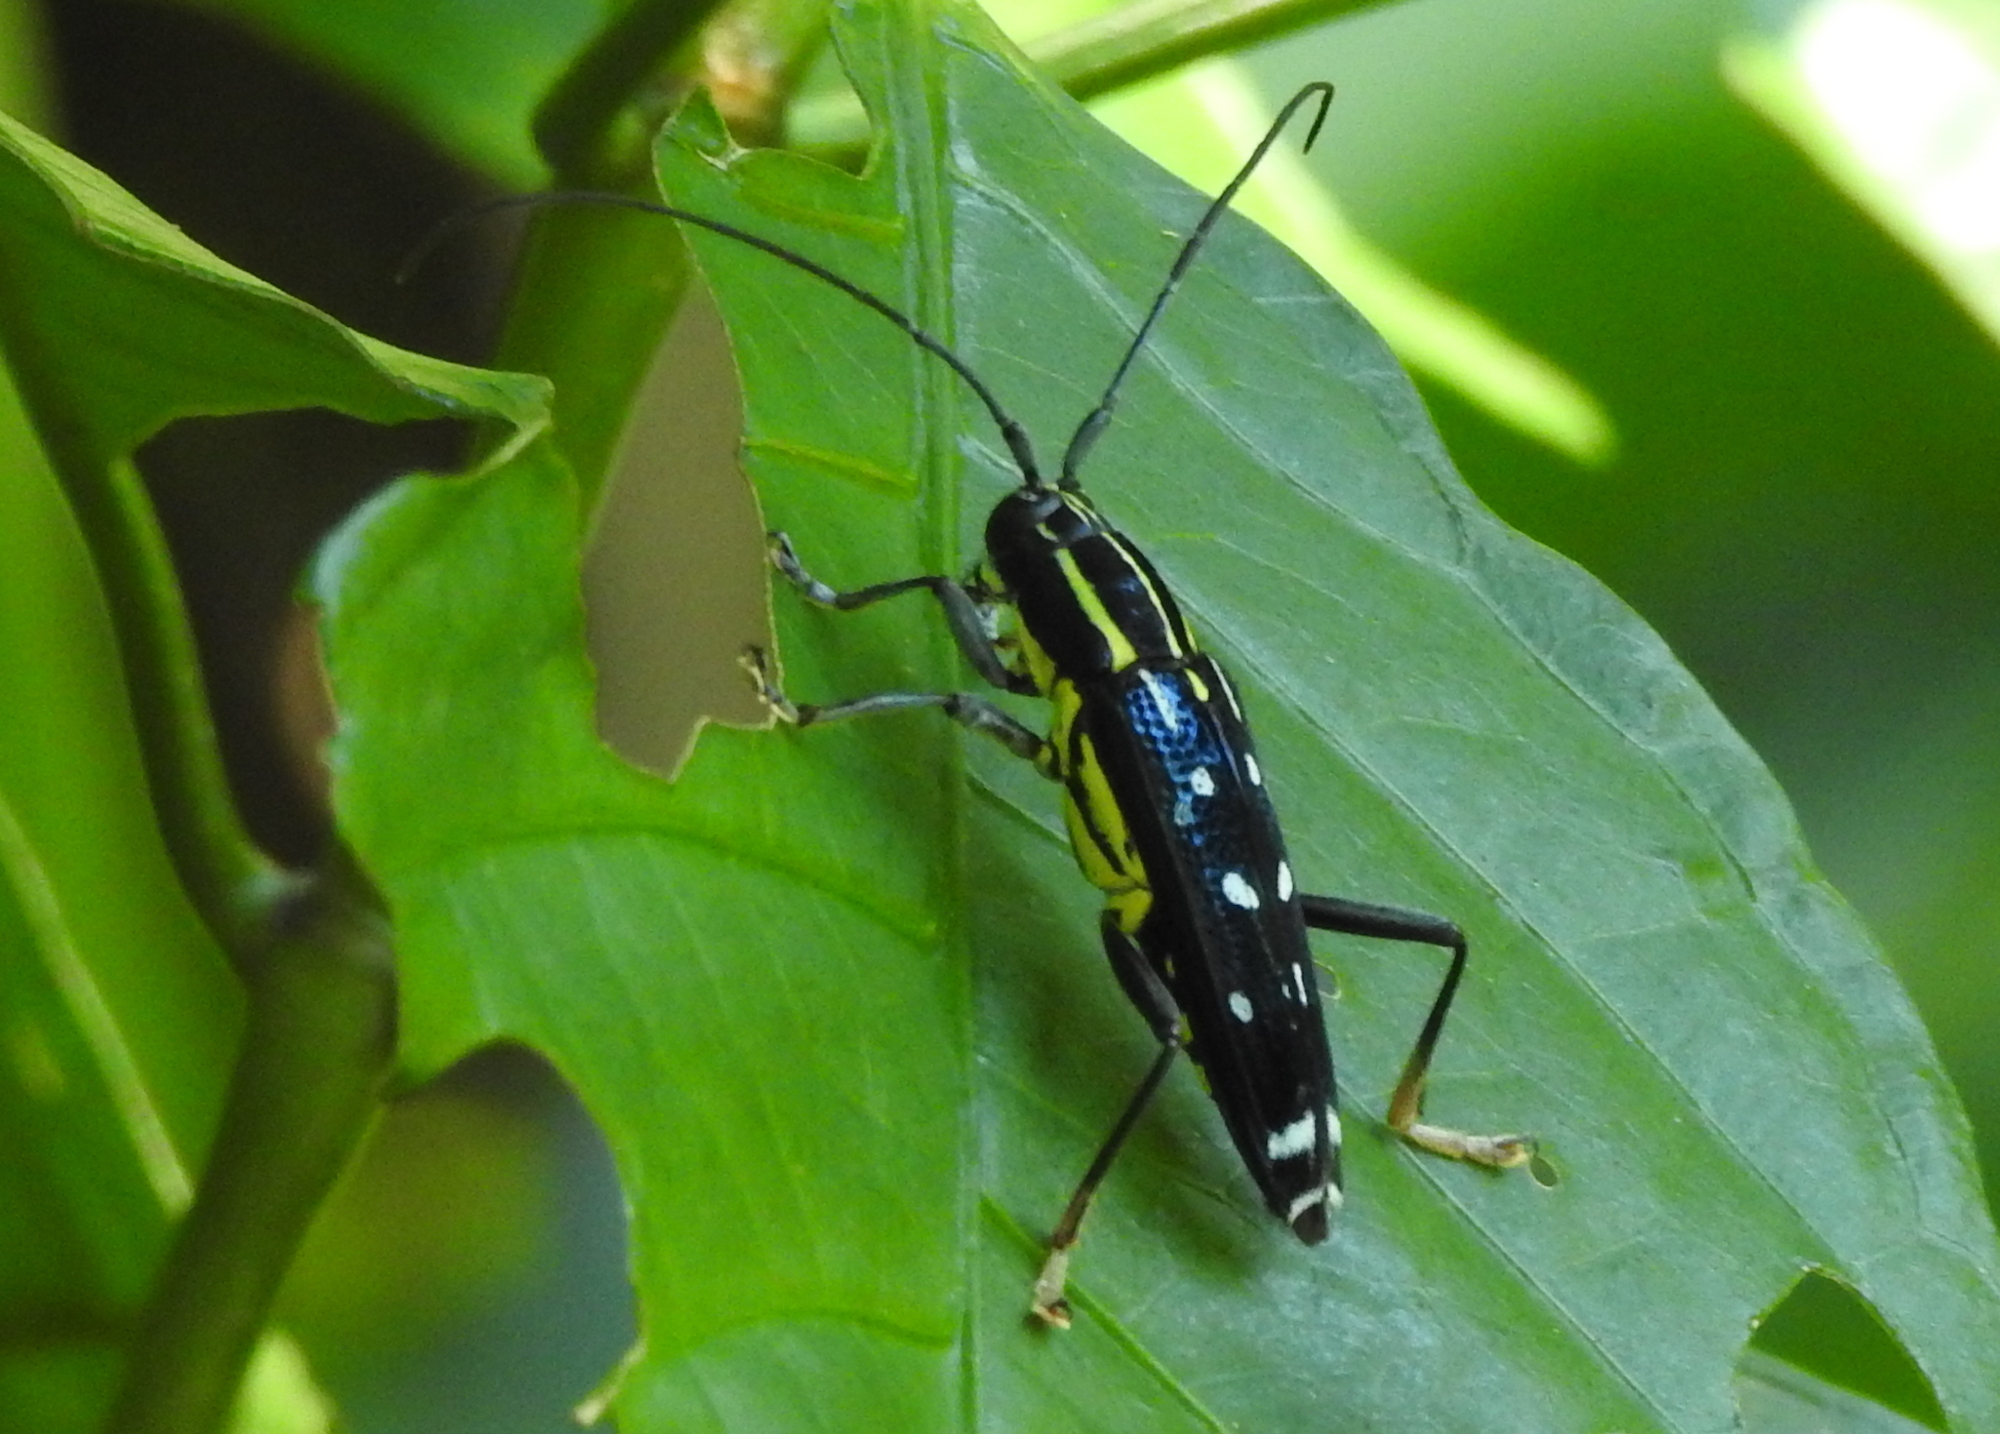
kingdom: Animalia
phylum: Arthropoda
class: Insecta
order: Coleoptera
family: Cerambycidae
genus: Glenea
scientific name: Glenea elegans
